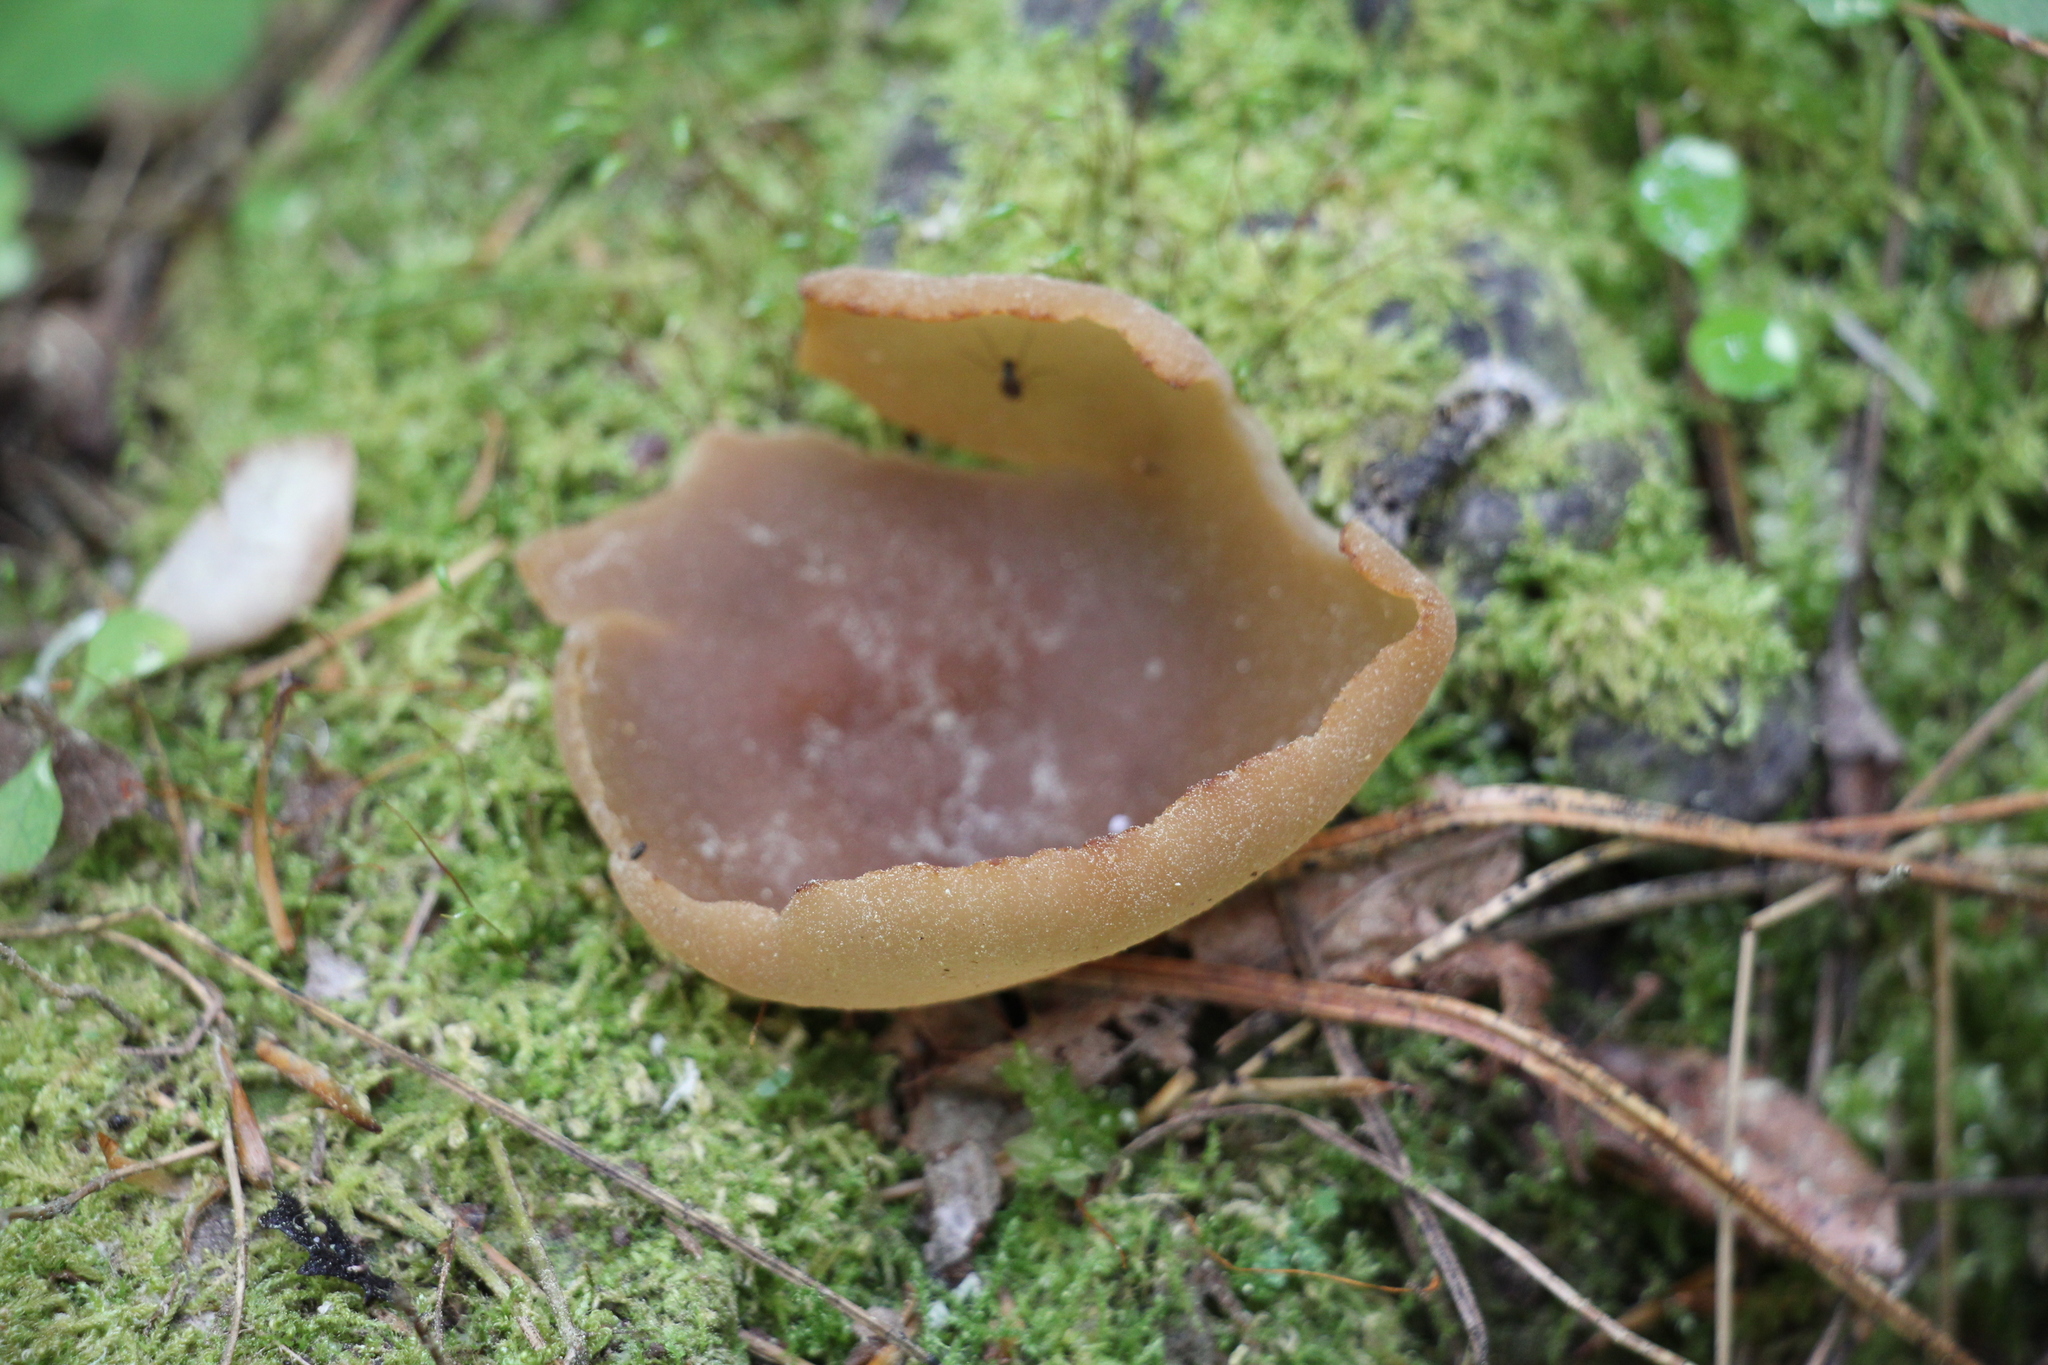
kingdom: Fungi
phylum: Ascomycota
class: Pezizomycetes
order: Pezizales
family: Pezizaceae
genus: Peziza
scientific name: Peziza varia
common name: Layered cup
